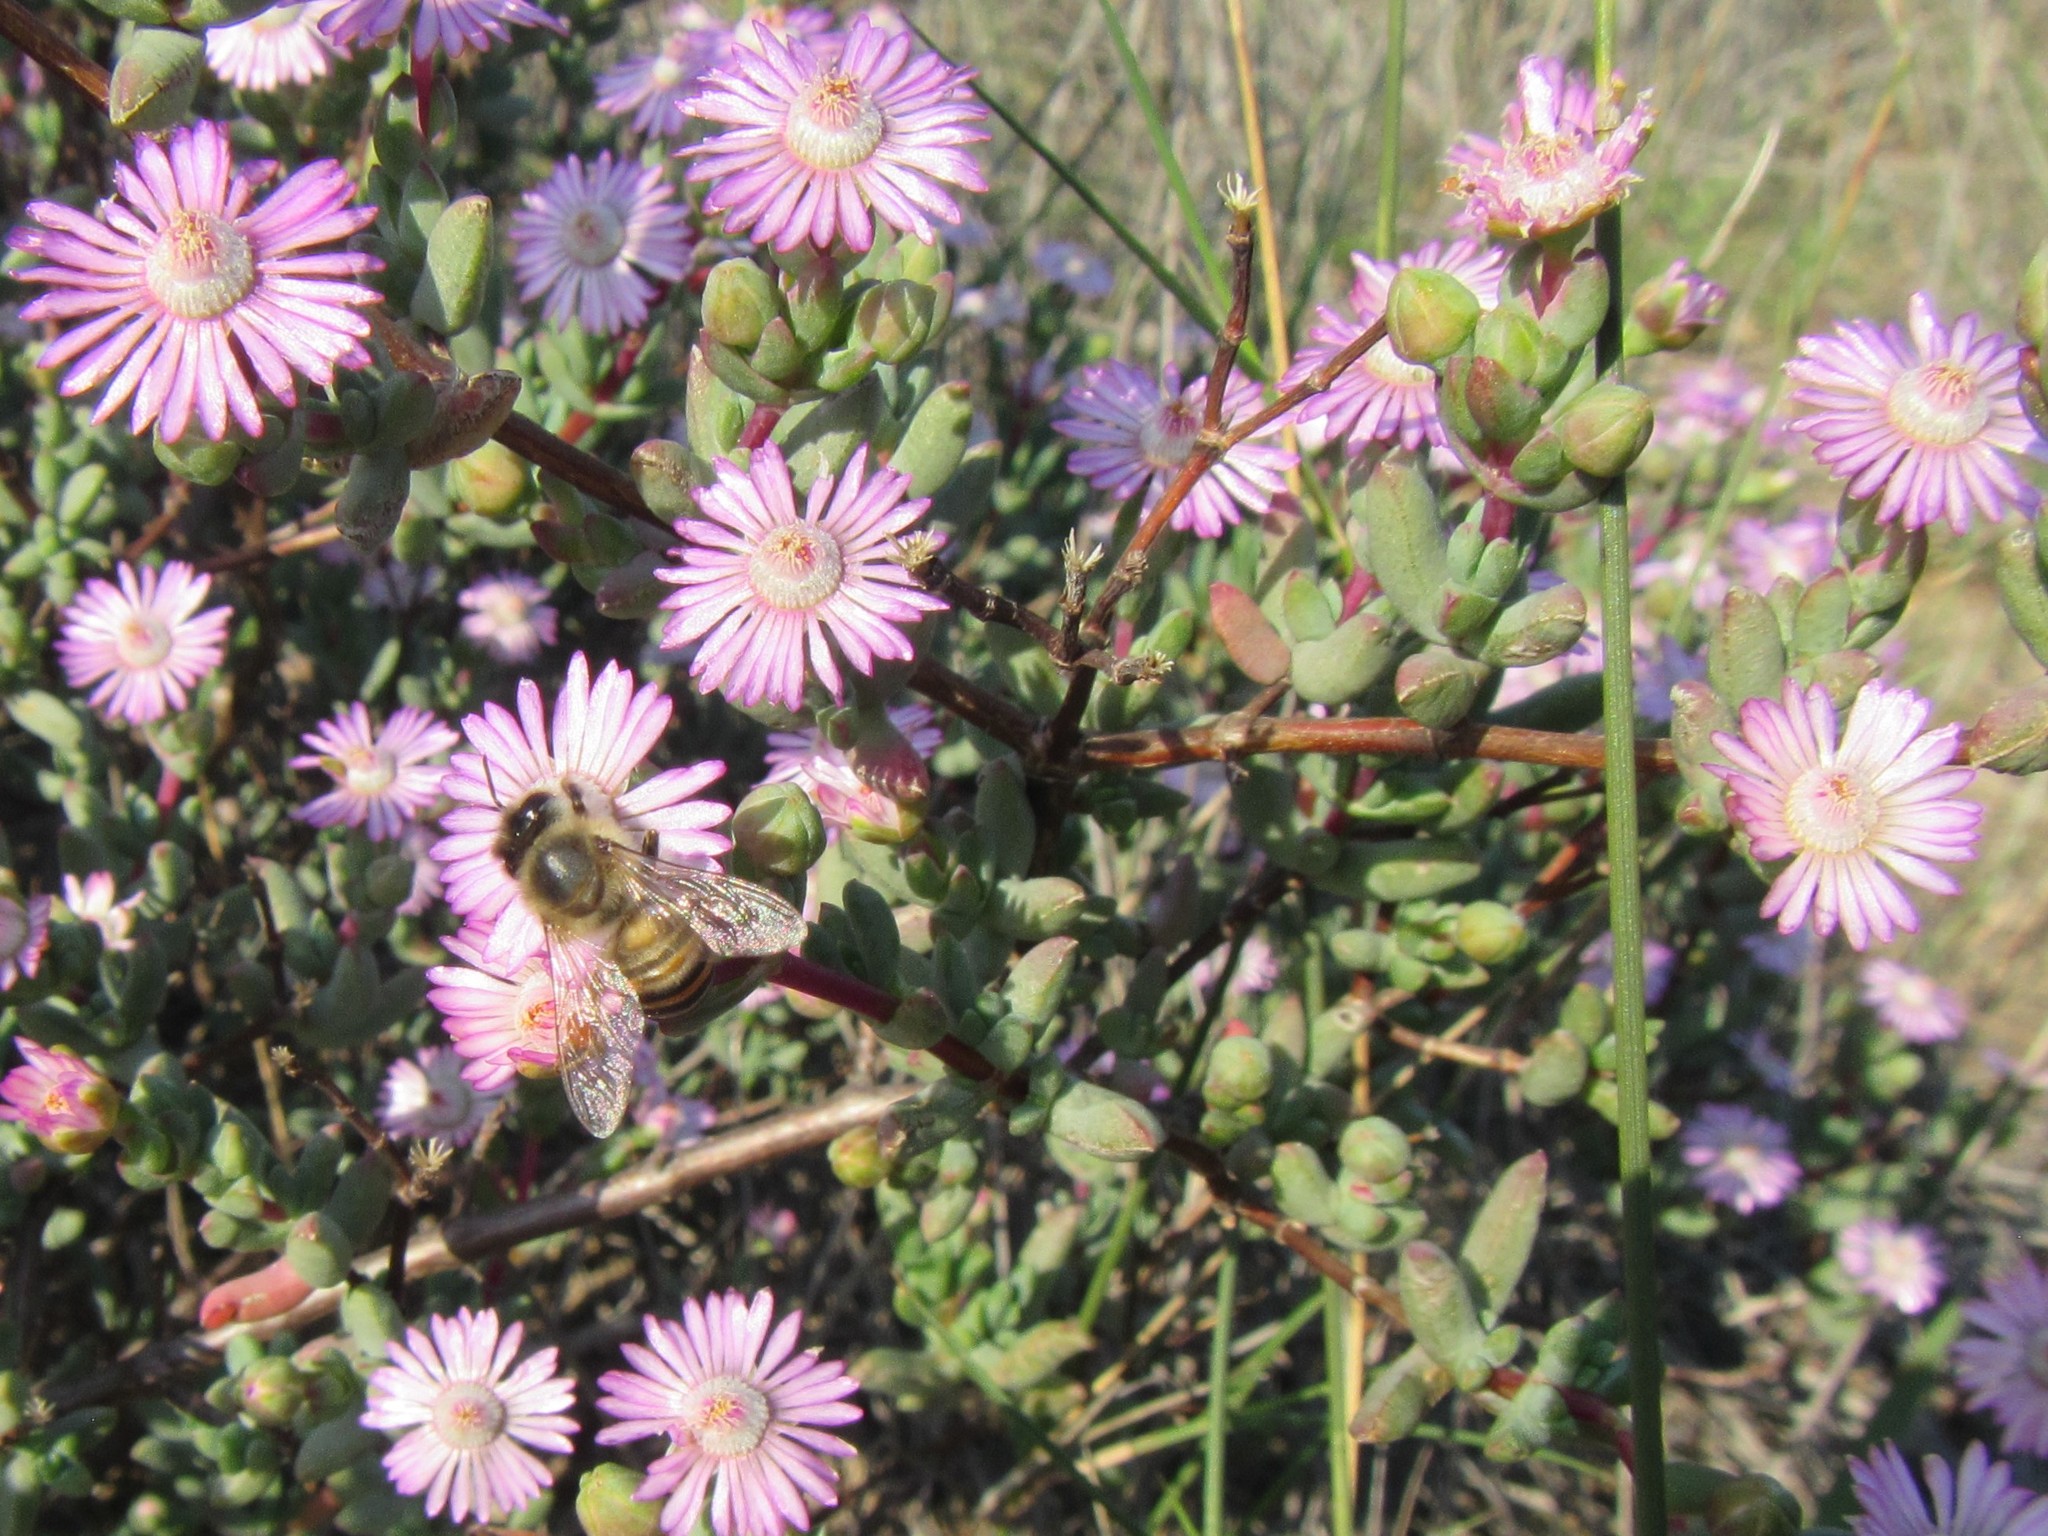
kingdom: Plantae
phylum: Tracheophyta
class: Magnoliopsida
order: Caryophyllales
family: Aizoaceae
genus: Ruschiella
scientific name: Ruschiella argentea
